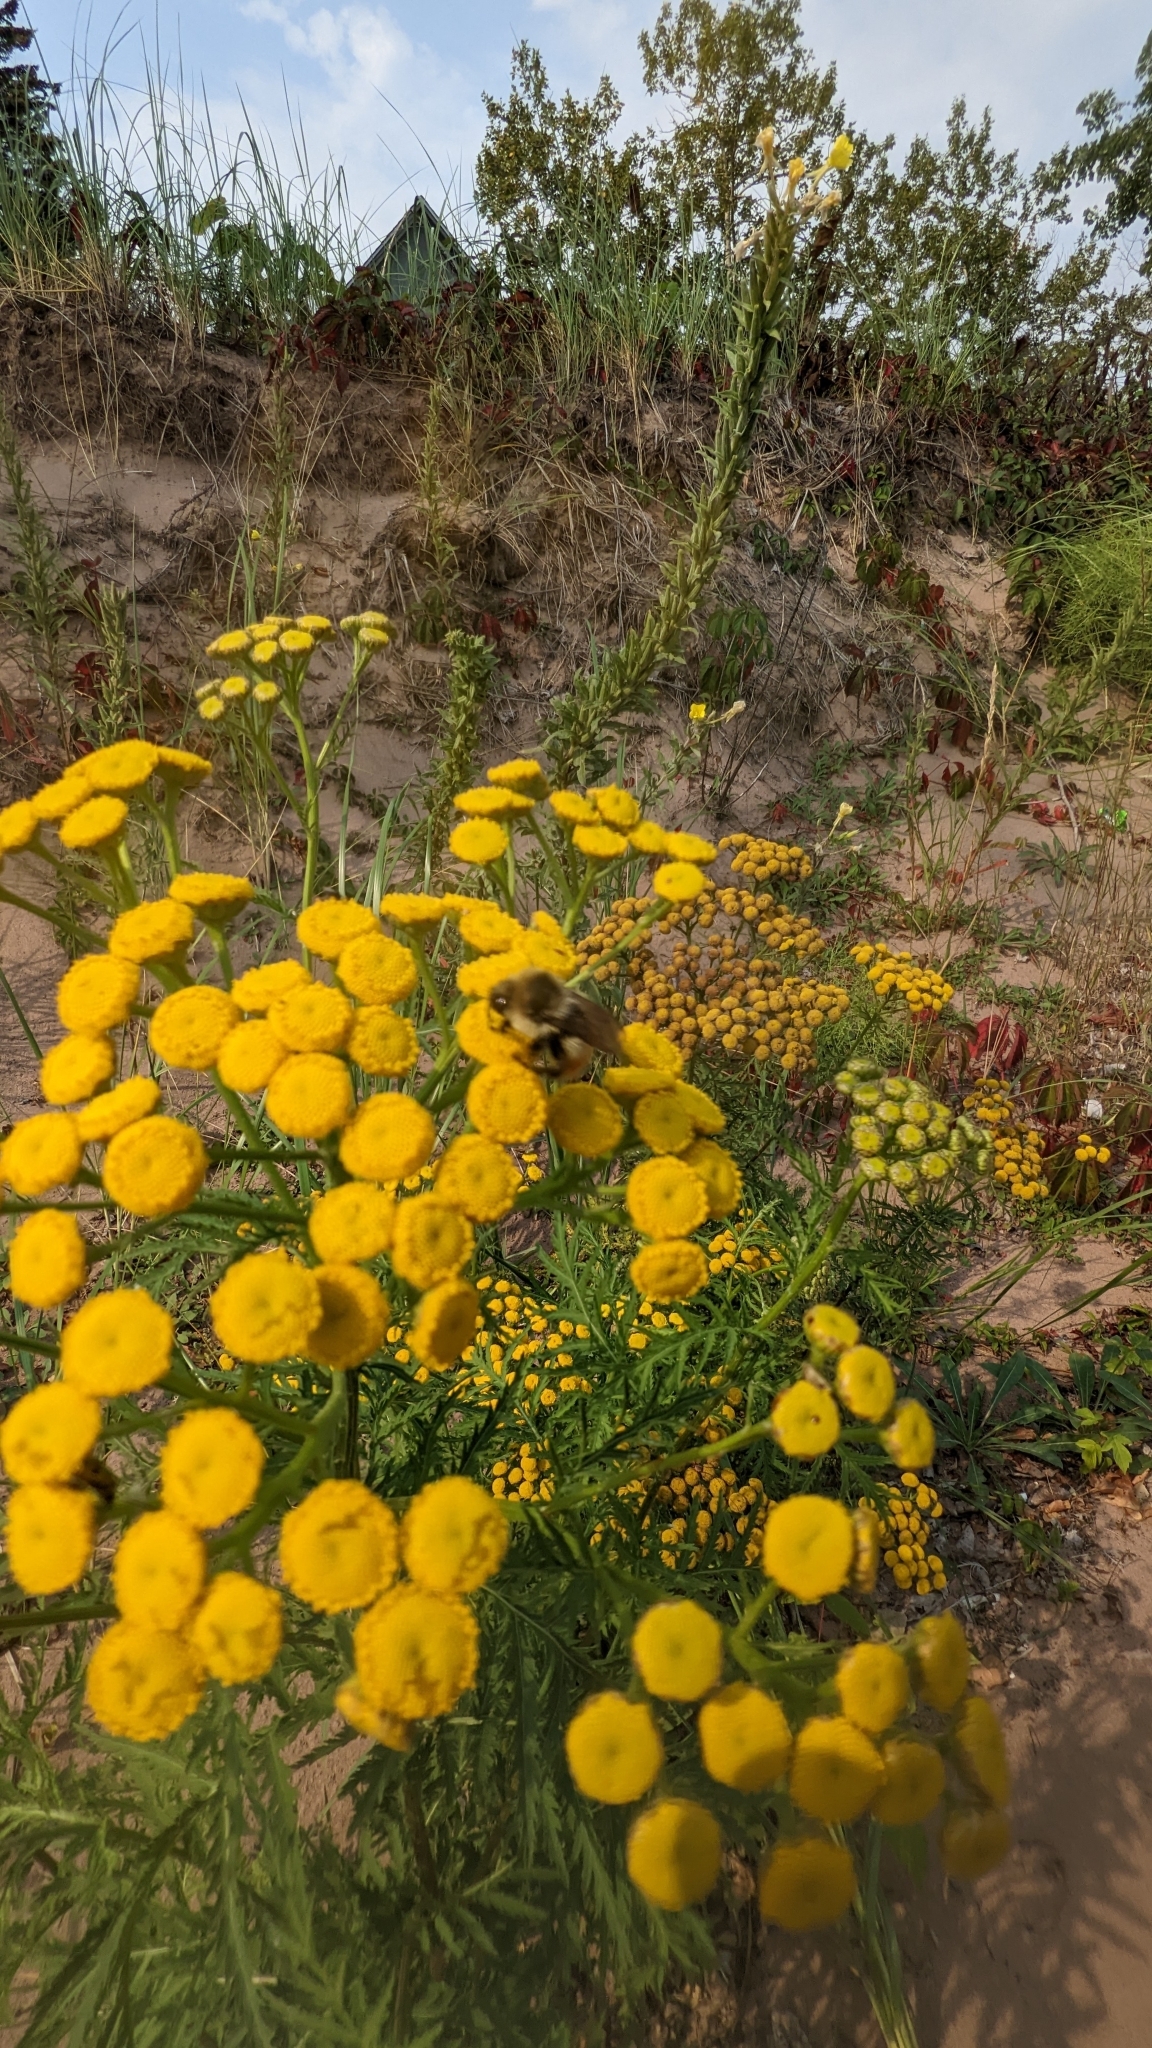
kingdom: Animalia
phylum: Arthropoda
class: Insecta
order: Hymenoptera
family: Apidae
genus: Bombus
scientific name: Bombus rufocinctus
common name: Red-belted bumble bee
